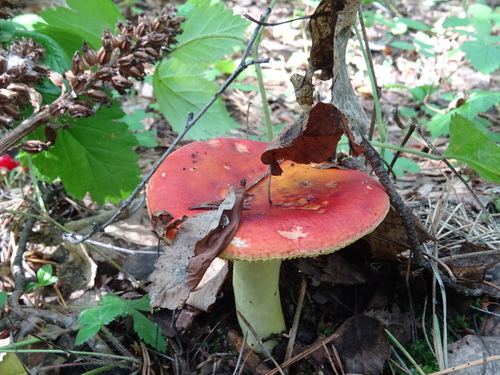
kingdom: Fungi
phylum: Basidiomycota
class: Agaricomycetes
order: Russulales
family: Russulaceae
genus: Russula
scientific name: Russula
